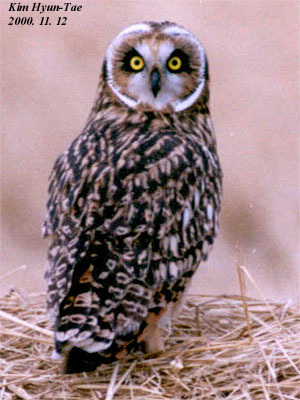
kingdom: Animalia
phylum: Chordata
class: Aves
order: Strigiformes
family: Strigidae
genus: Asio
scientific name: Asio flammeus
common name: Short-eared owl
